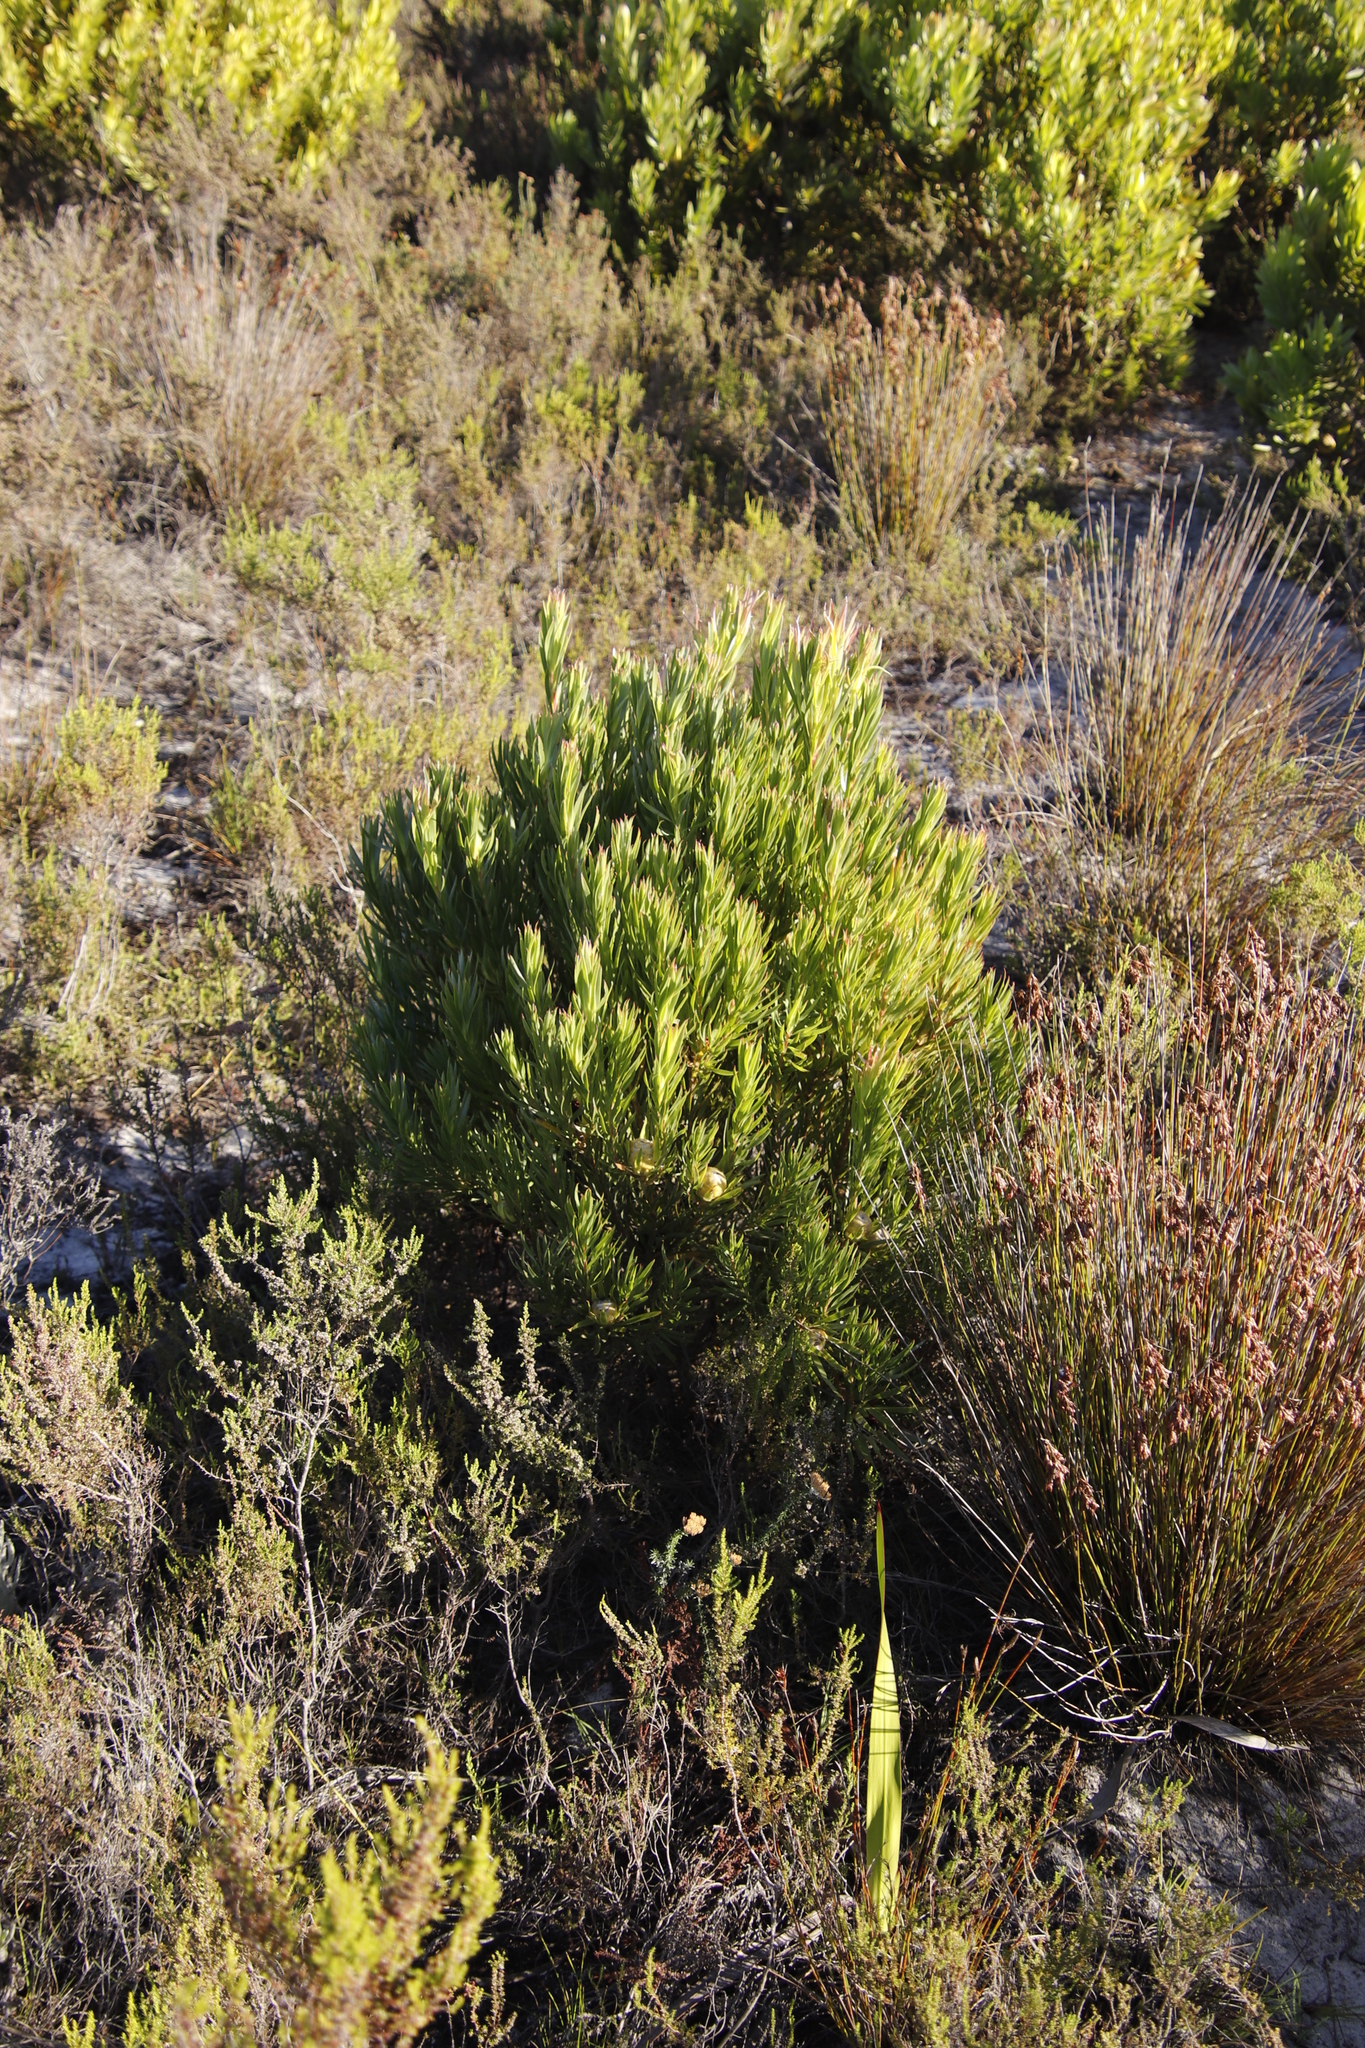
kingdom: Plantae
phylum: Tracheophyta
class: Magnoliopsida
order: Proteales
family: Proteaceae
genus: Leucadendron
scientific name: Leucadendron xanthoconus
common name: Sickle-leaf conebush
